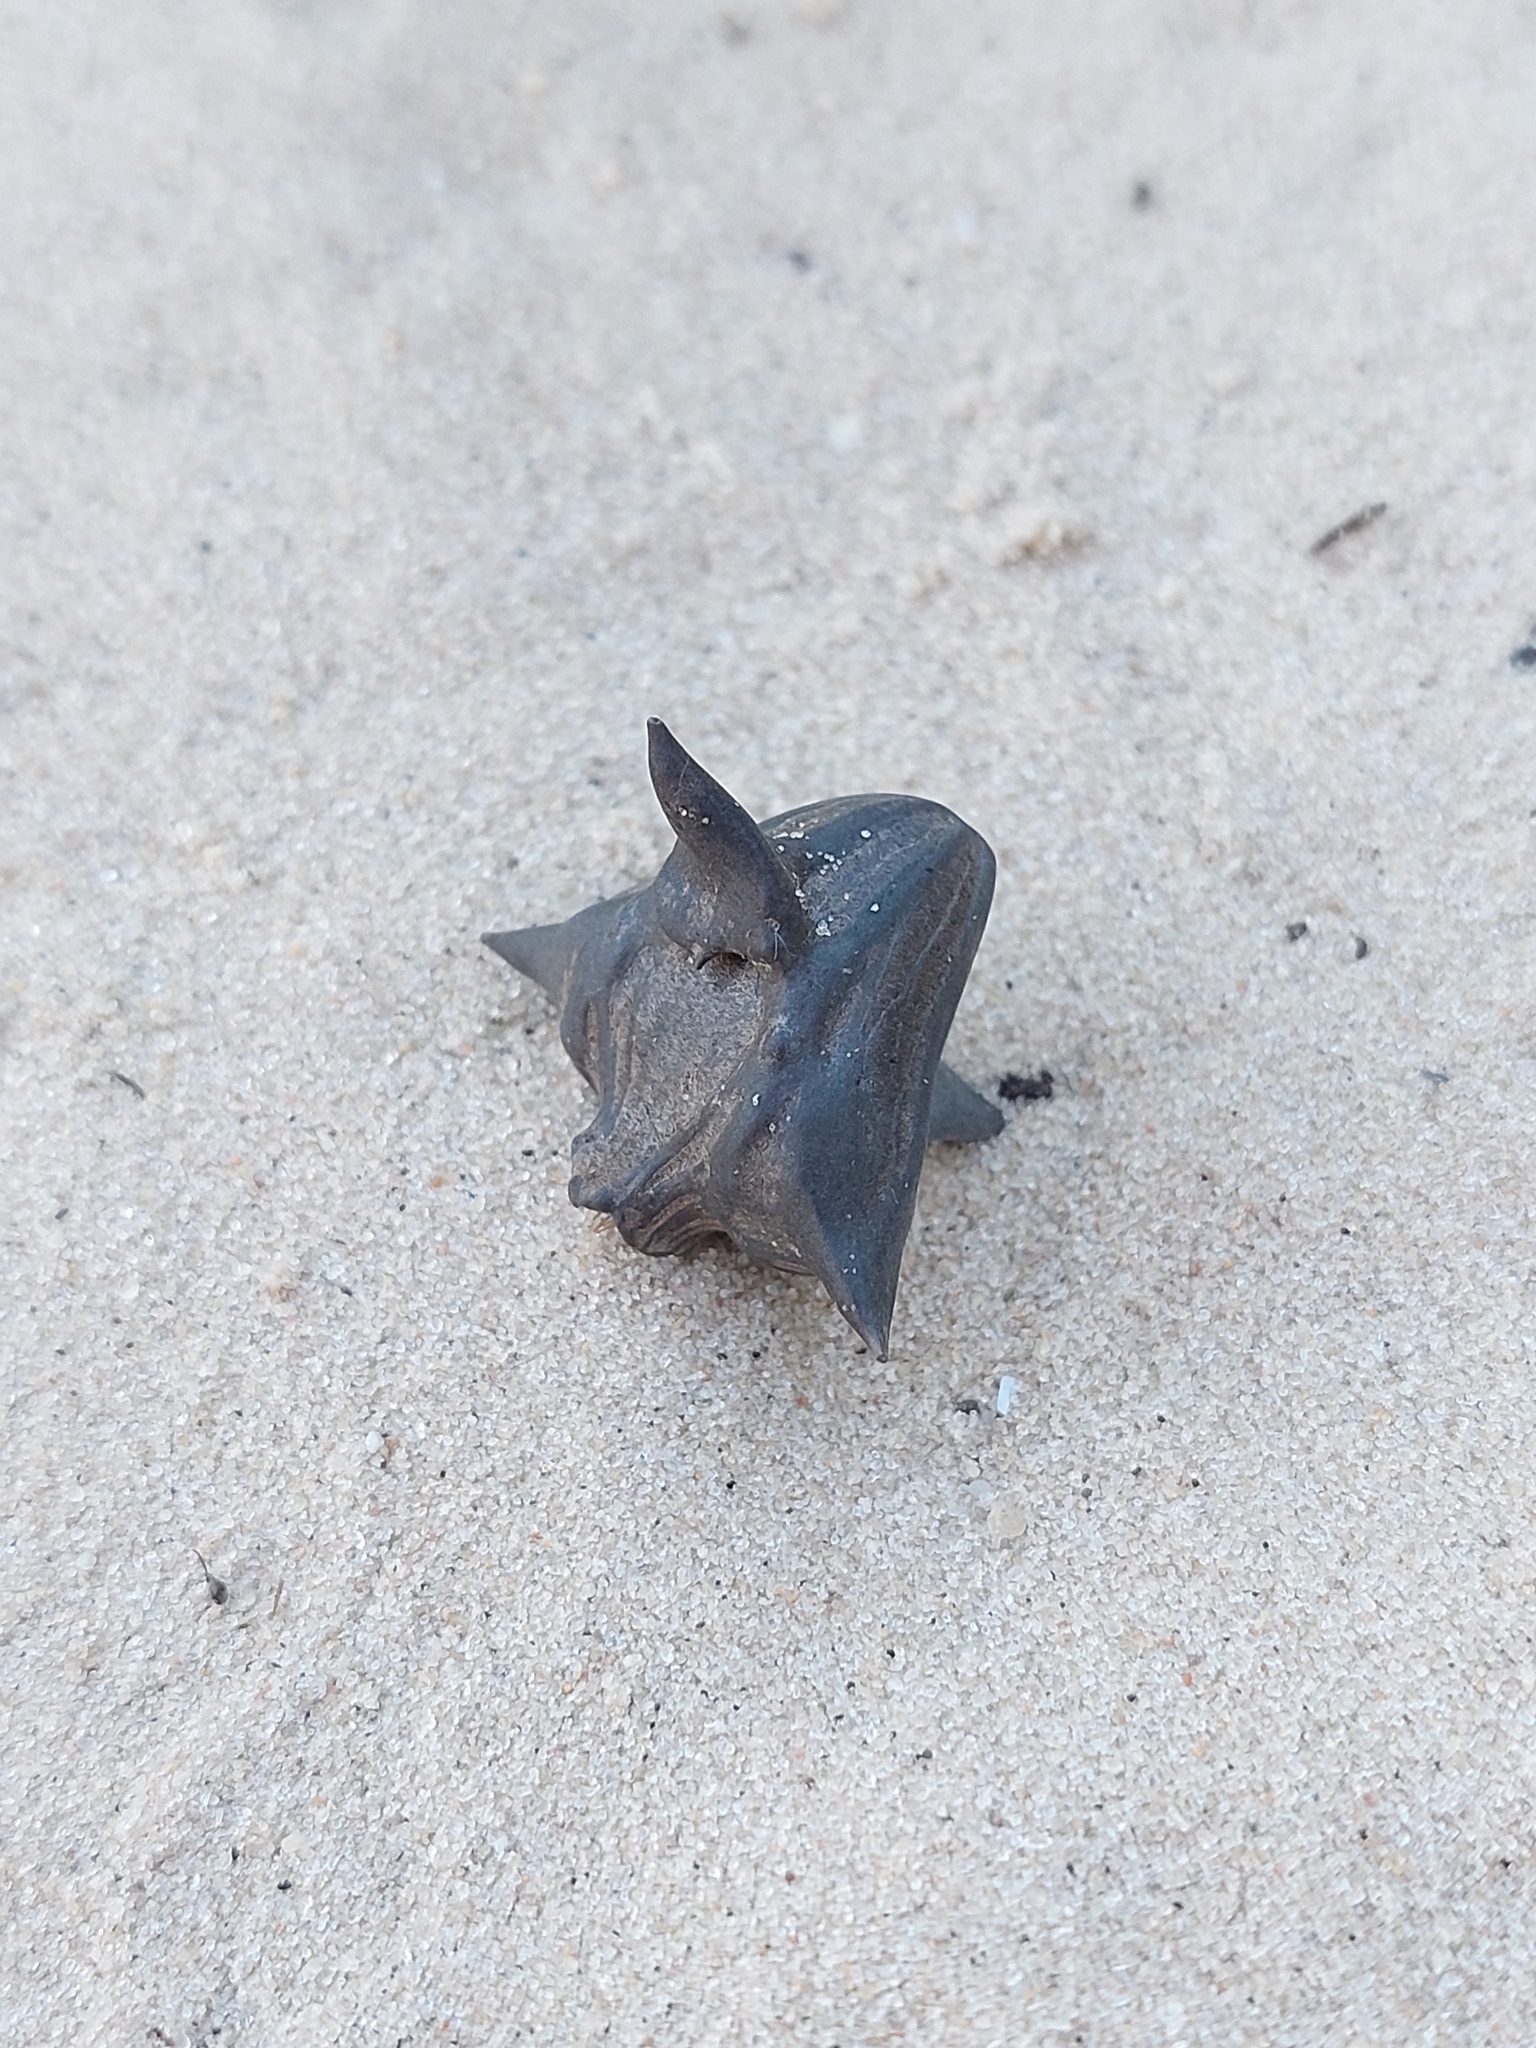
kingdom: Plantae
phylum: Tracheophyta
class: Magnoliopsida
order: Myrtales
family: Lythraceae
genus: Trapa
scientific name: Trapa natans
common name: Water chestnut
